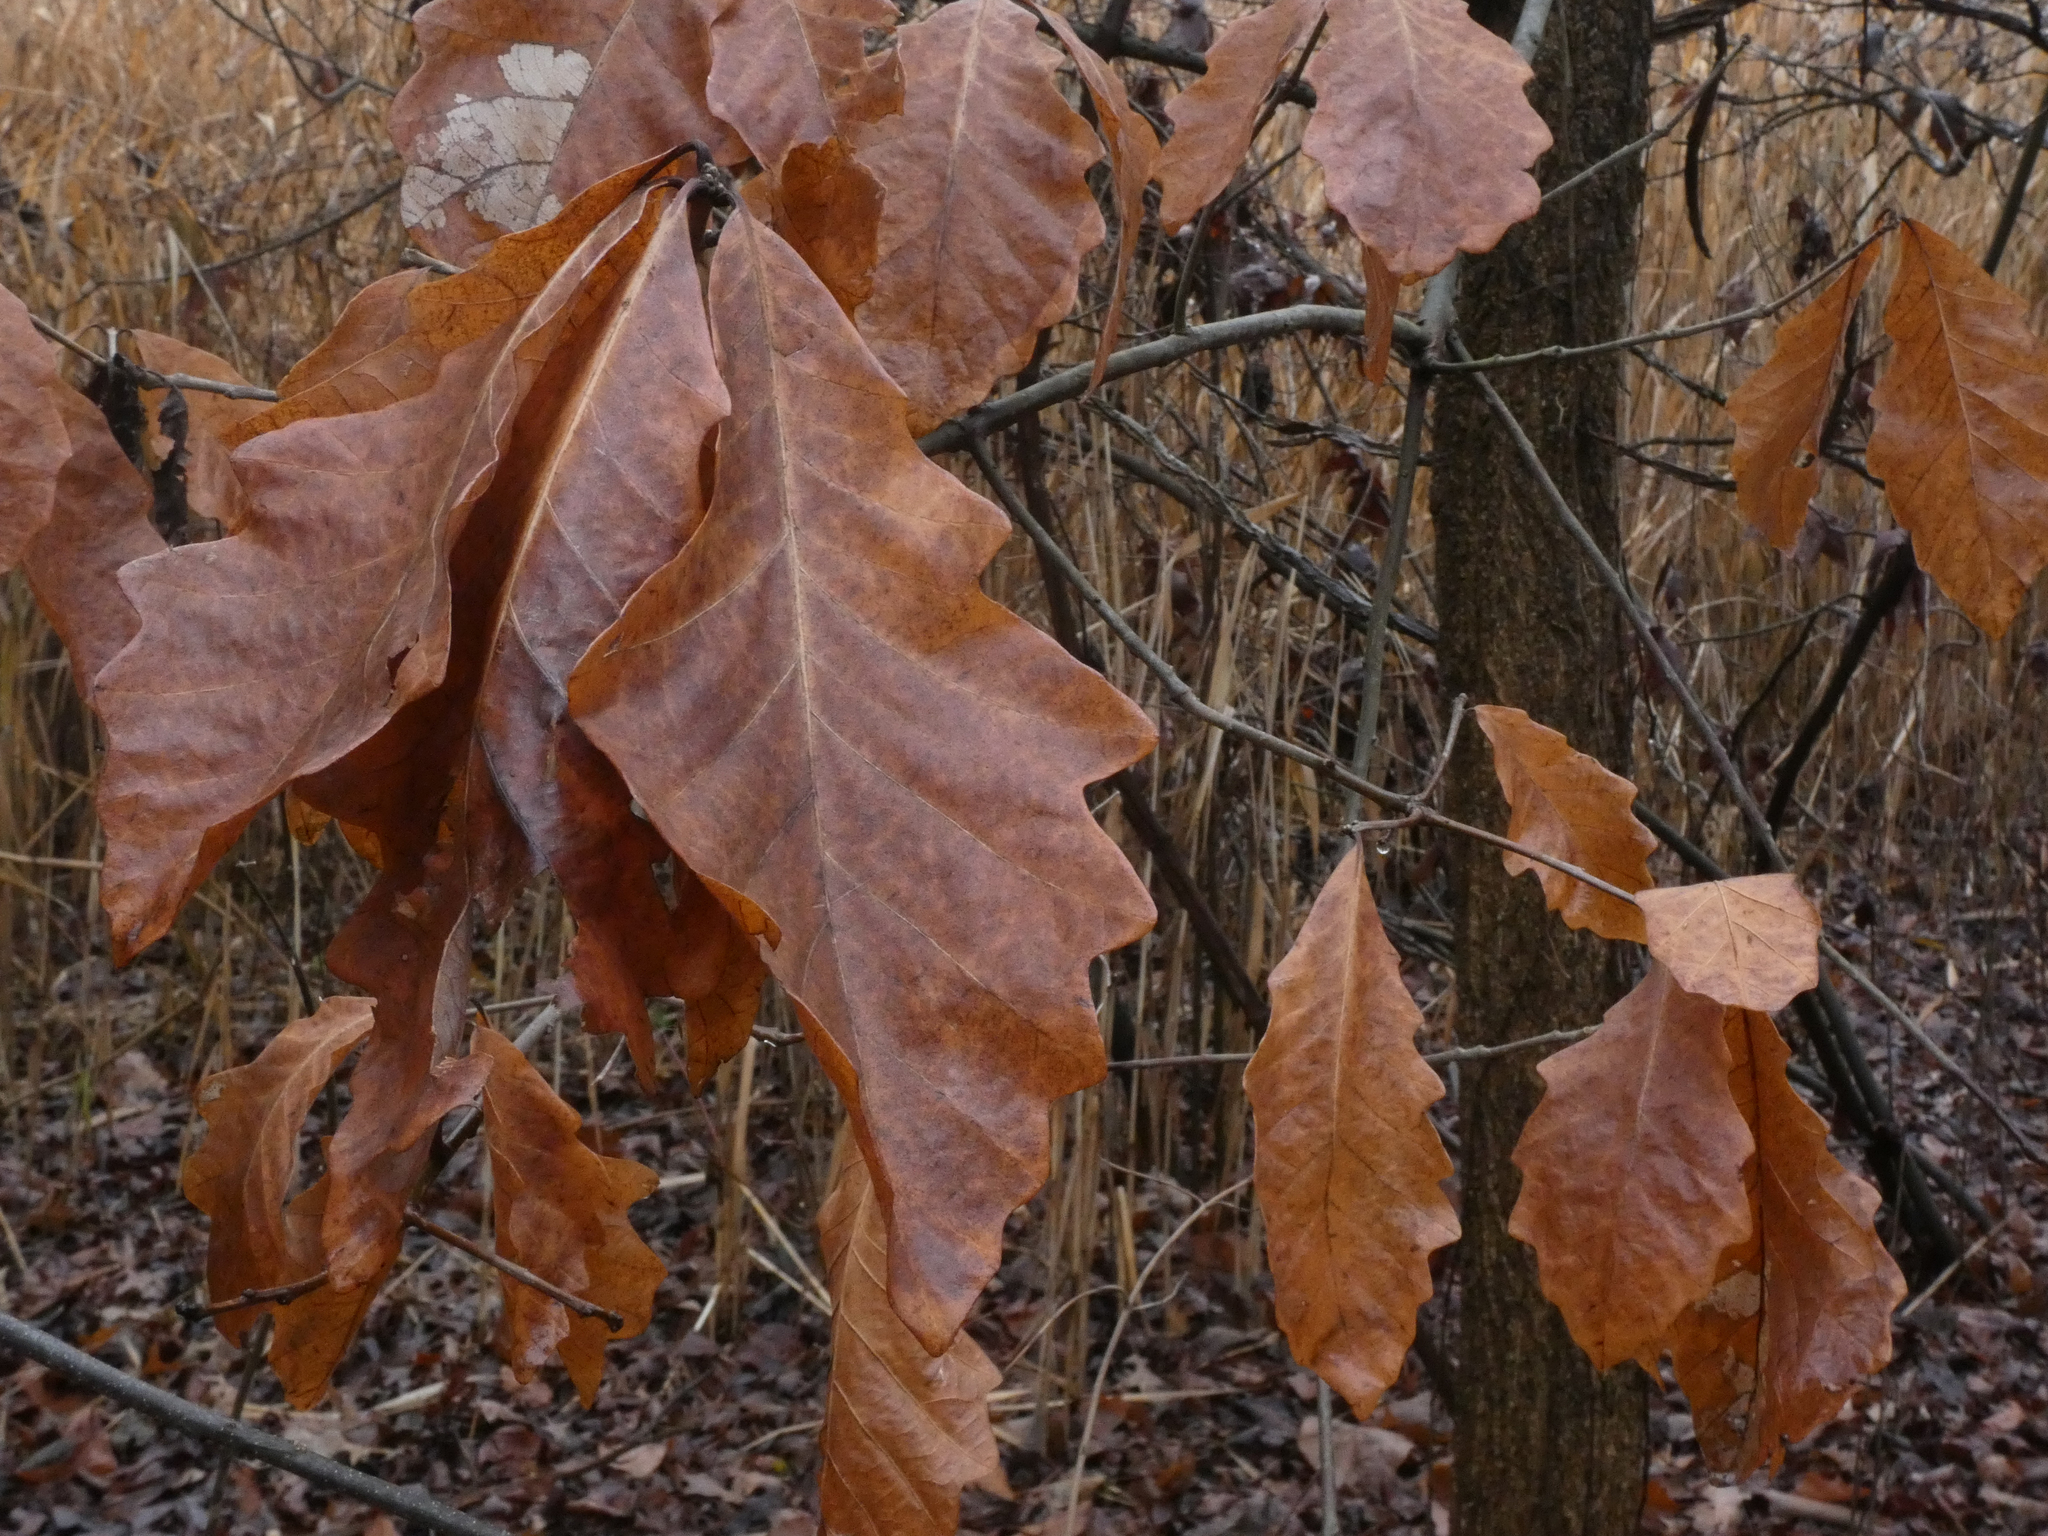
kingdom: Plantae
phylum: Tracheophyta
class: Magnoliopsida
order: Fagales
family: Fagaceae
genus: Quercus
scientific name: Quercus bicolor
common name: Swamp white oak
